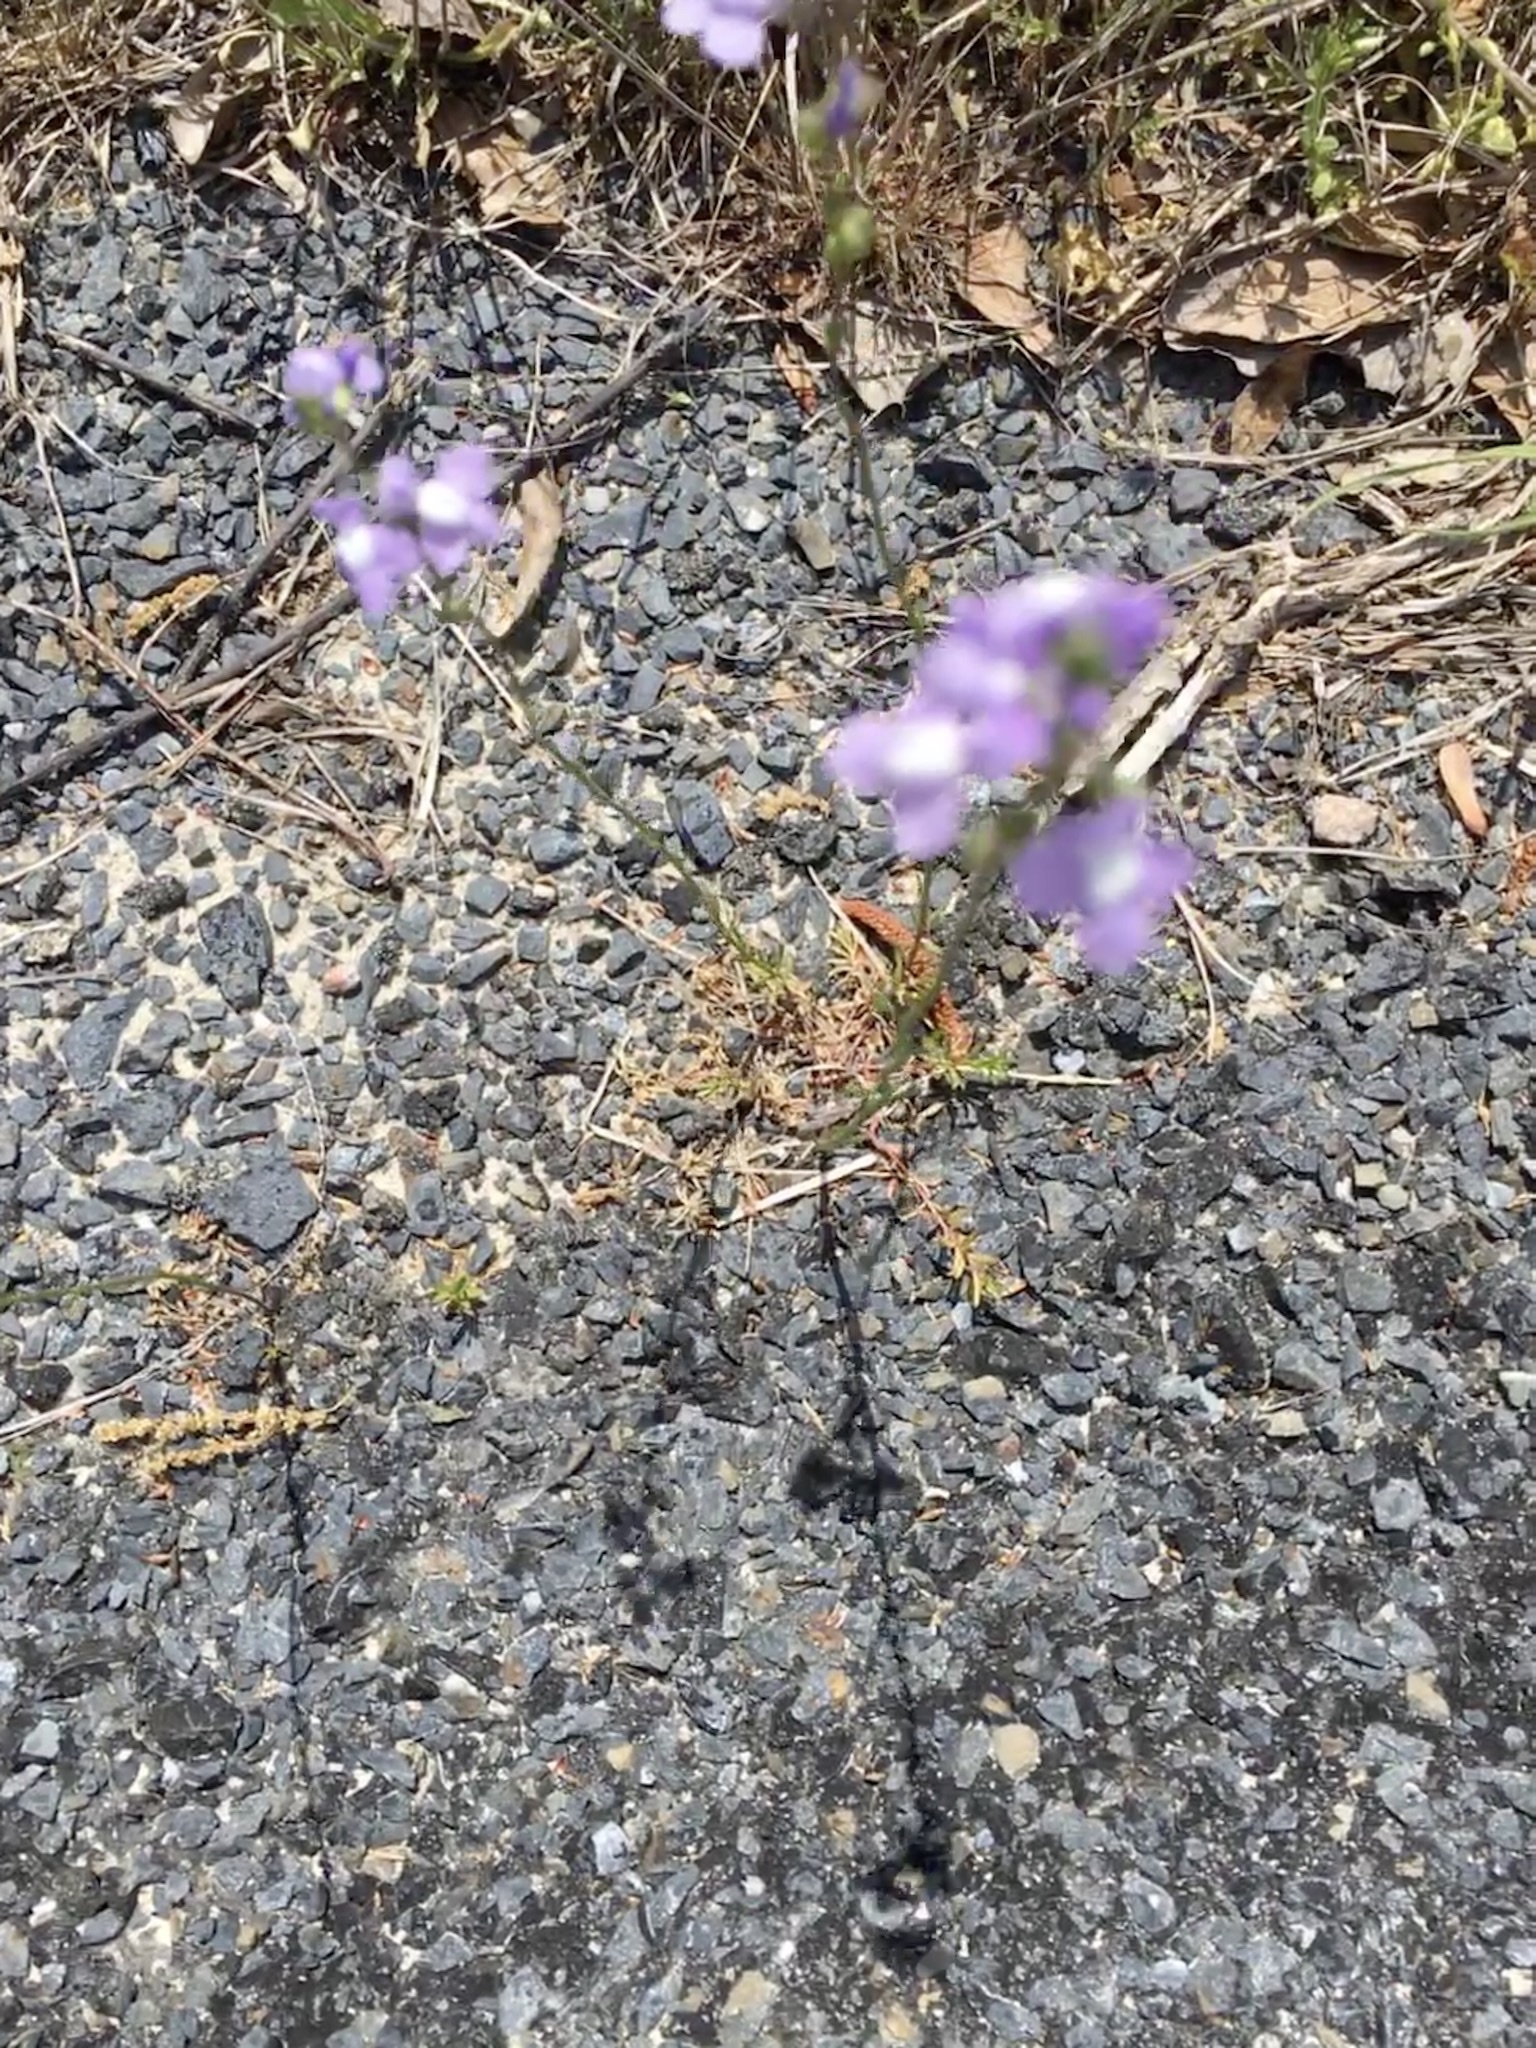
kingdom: Plantae
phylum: Tracheophyta
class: Magnoliopsida
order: Lamiales
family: Plantaginaceae
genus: Nuttallanthus
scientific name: Nuttallanthus canadensis
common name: Blue toadflax
